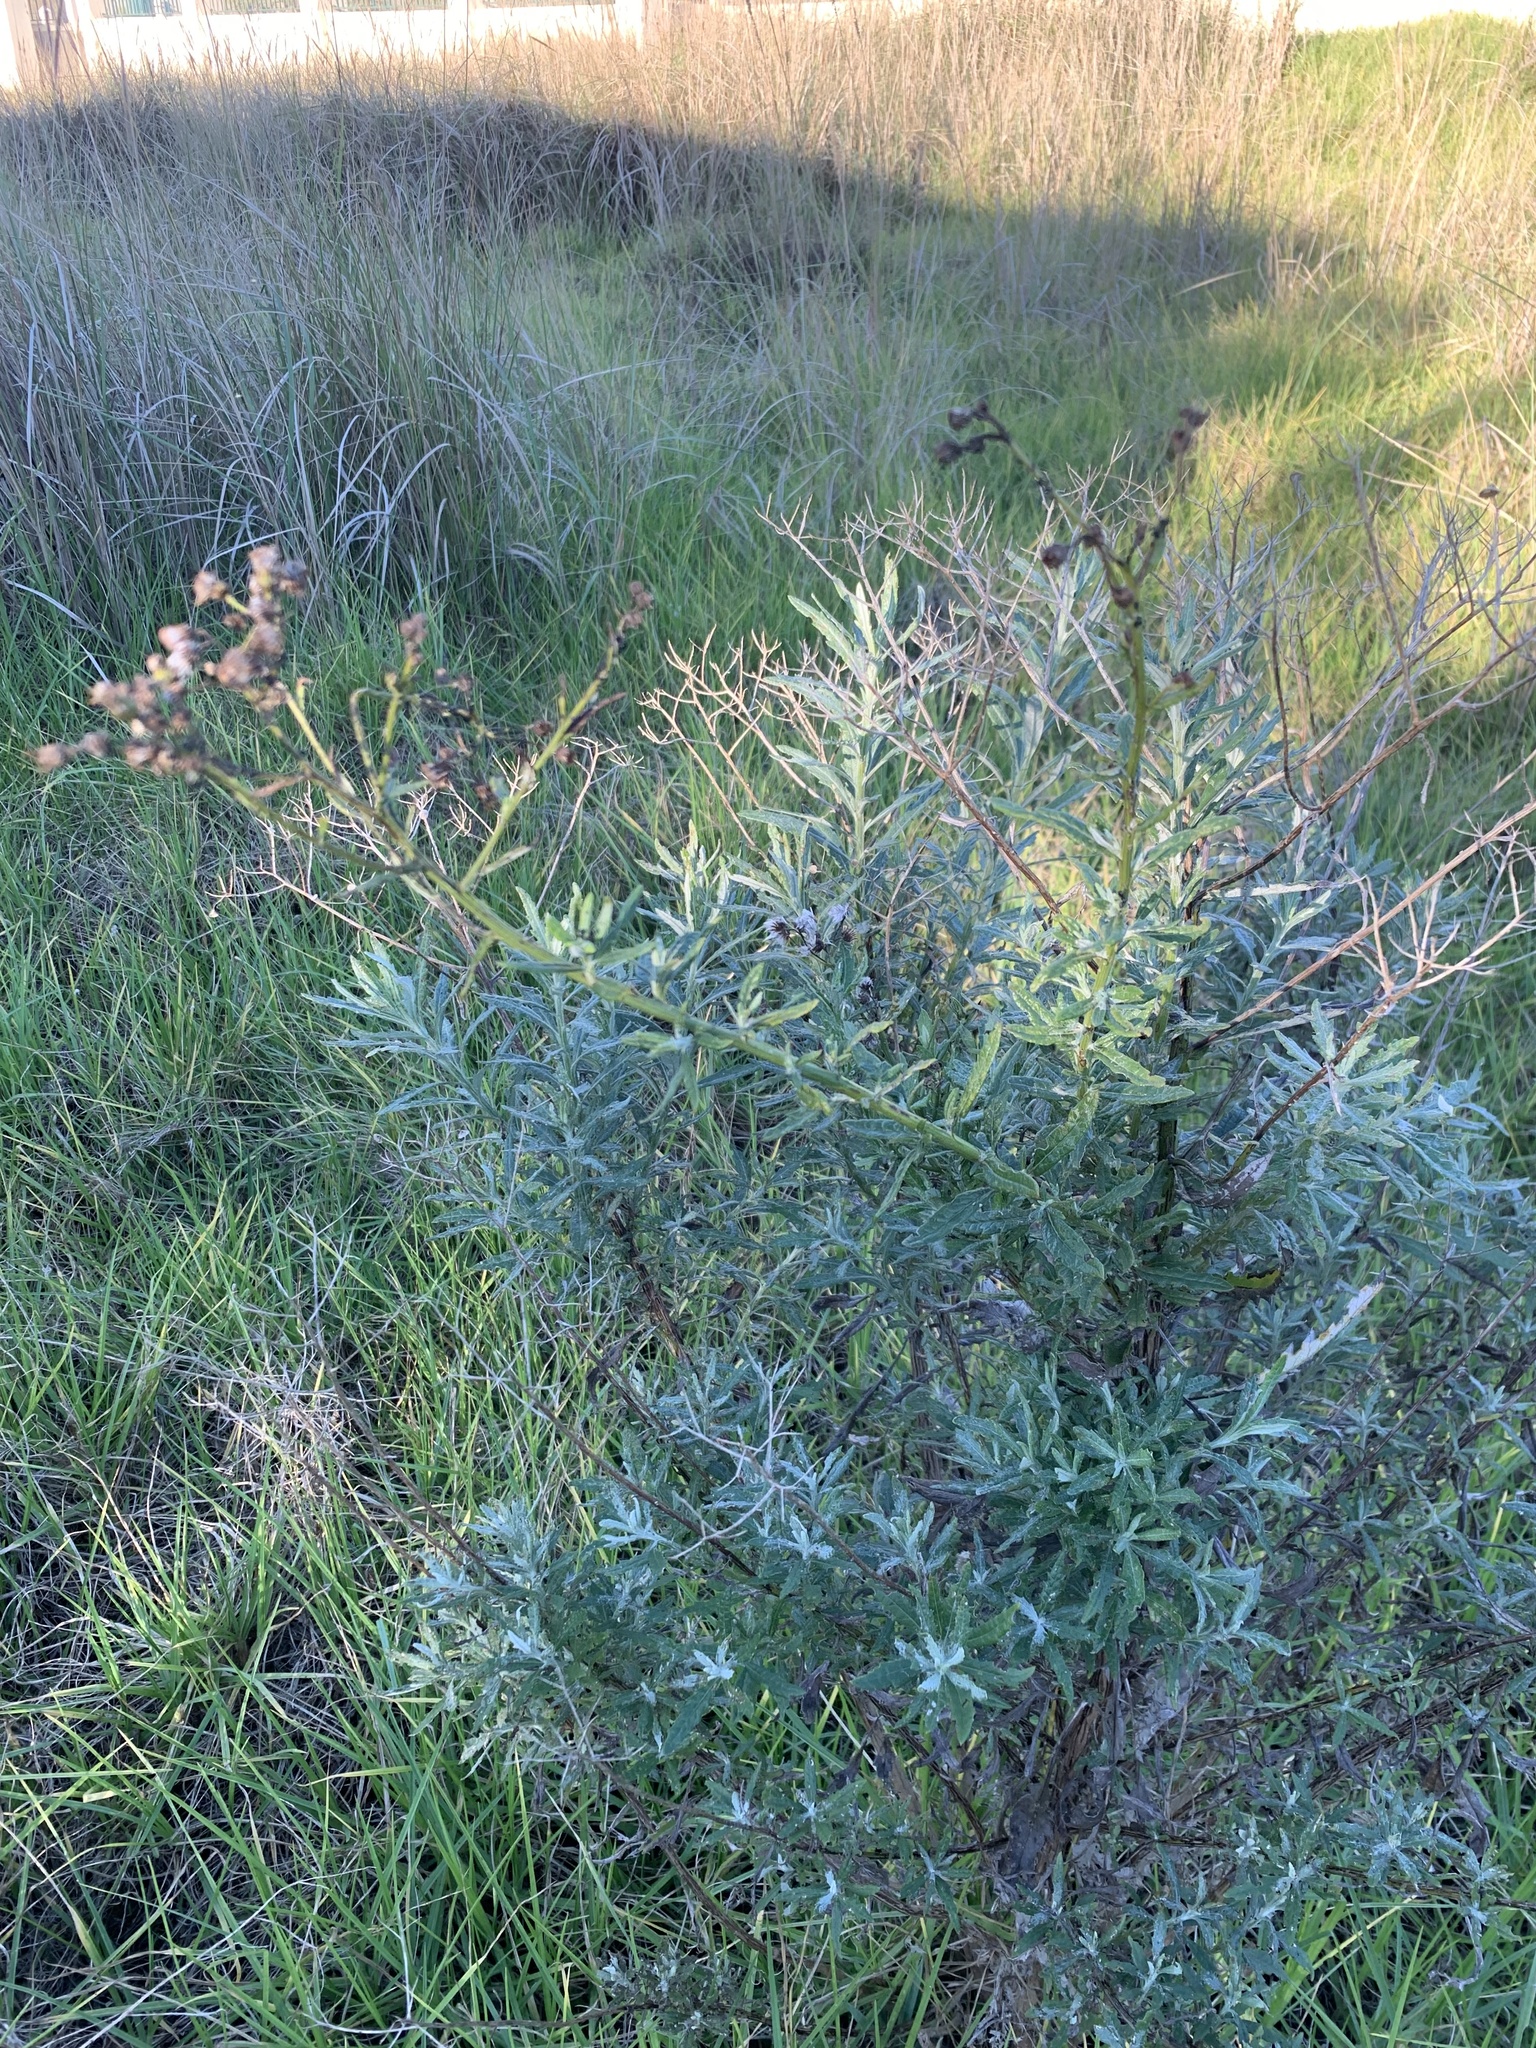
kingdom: Plantae
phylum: Tracheophyta
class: Magnoliopsida
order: Asterales
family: Asteraceae
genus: Senecio
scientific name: Senecio pterophorus
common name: Shoddy ragwort
